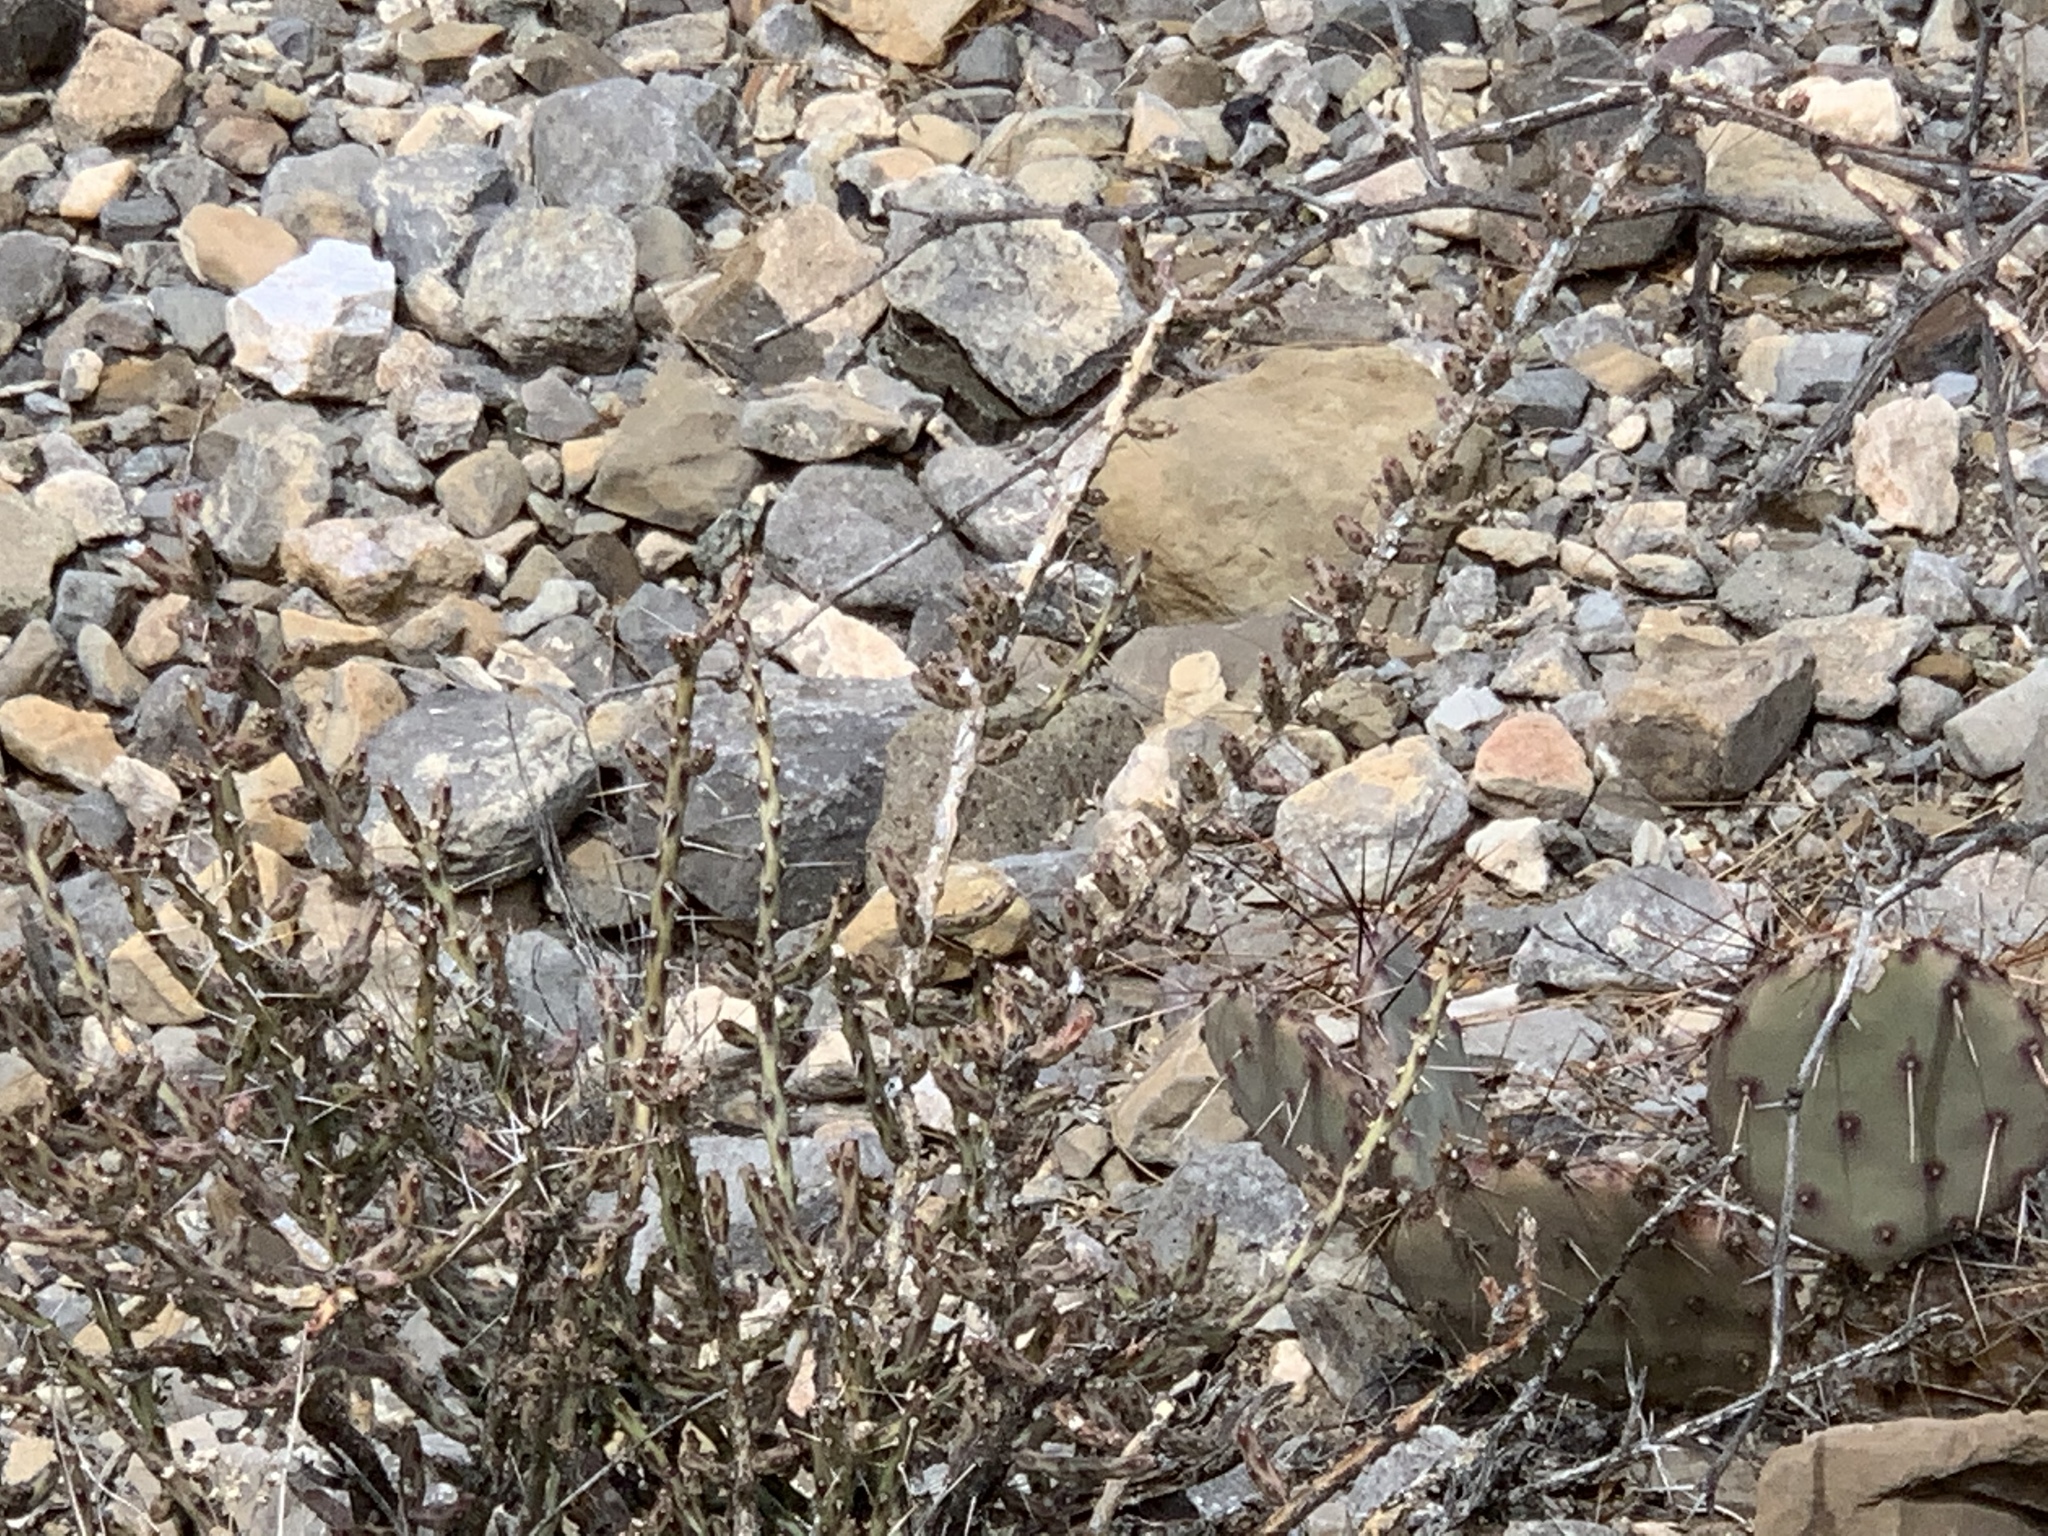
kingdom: Plantae
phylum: Tracheophyta
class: Magnoliopsida
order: Caryophyllales
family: Cactaceae
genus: Cylindropuntia
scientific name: Cylindropuntia leptocaulis
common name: Christmas cactus
